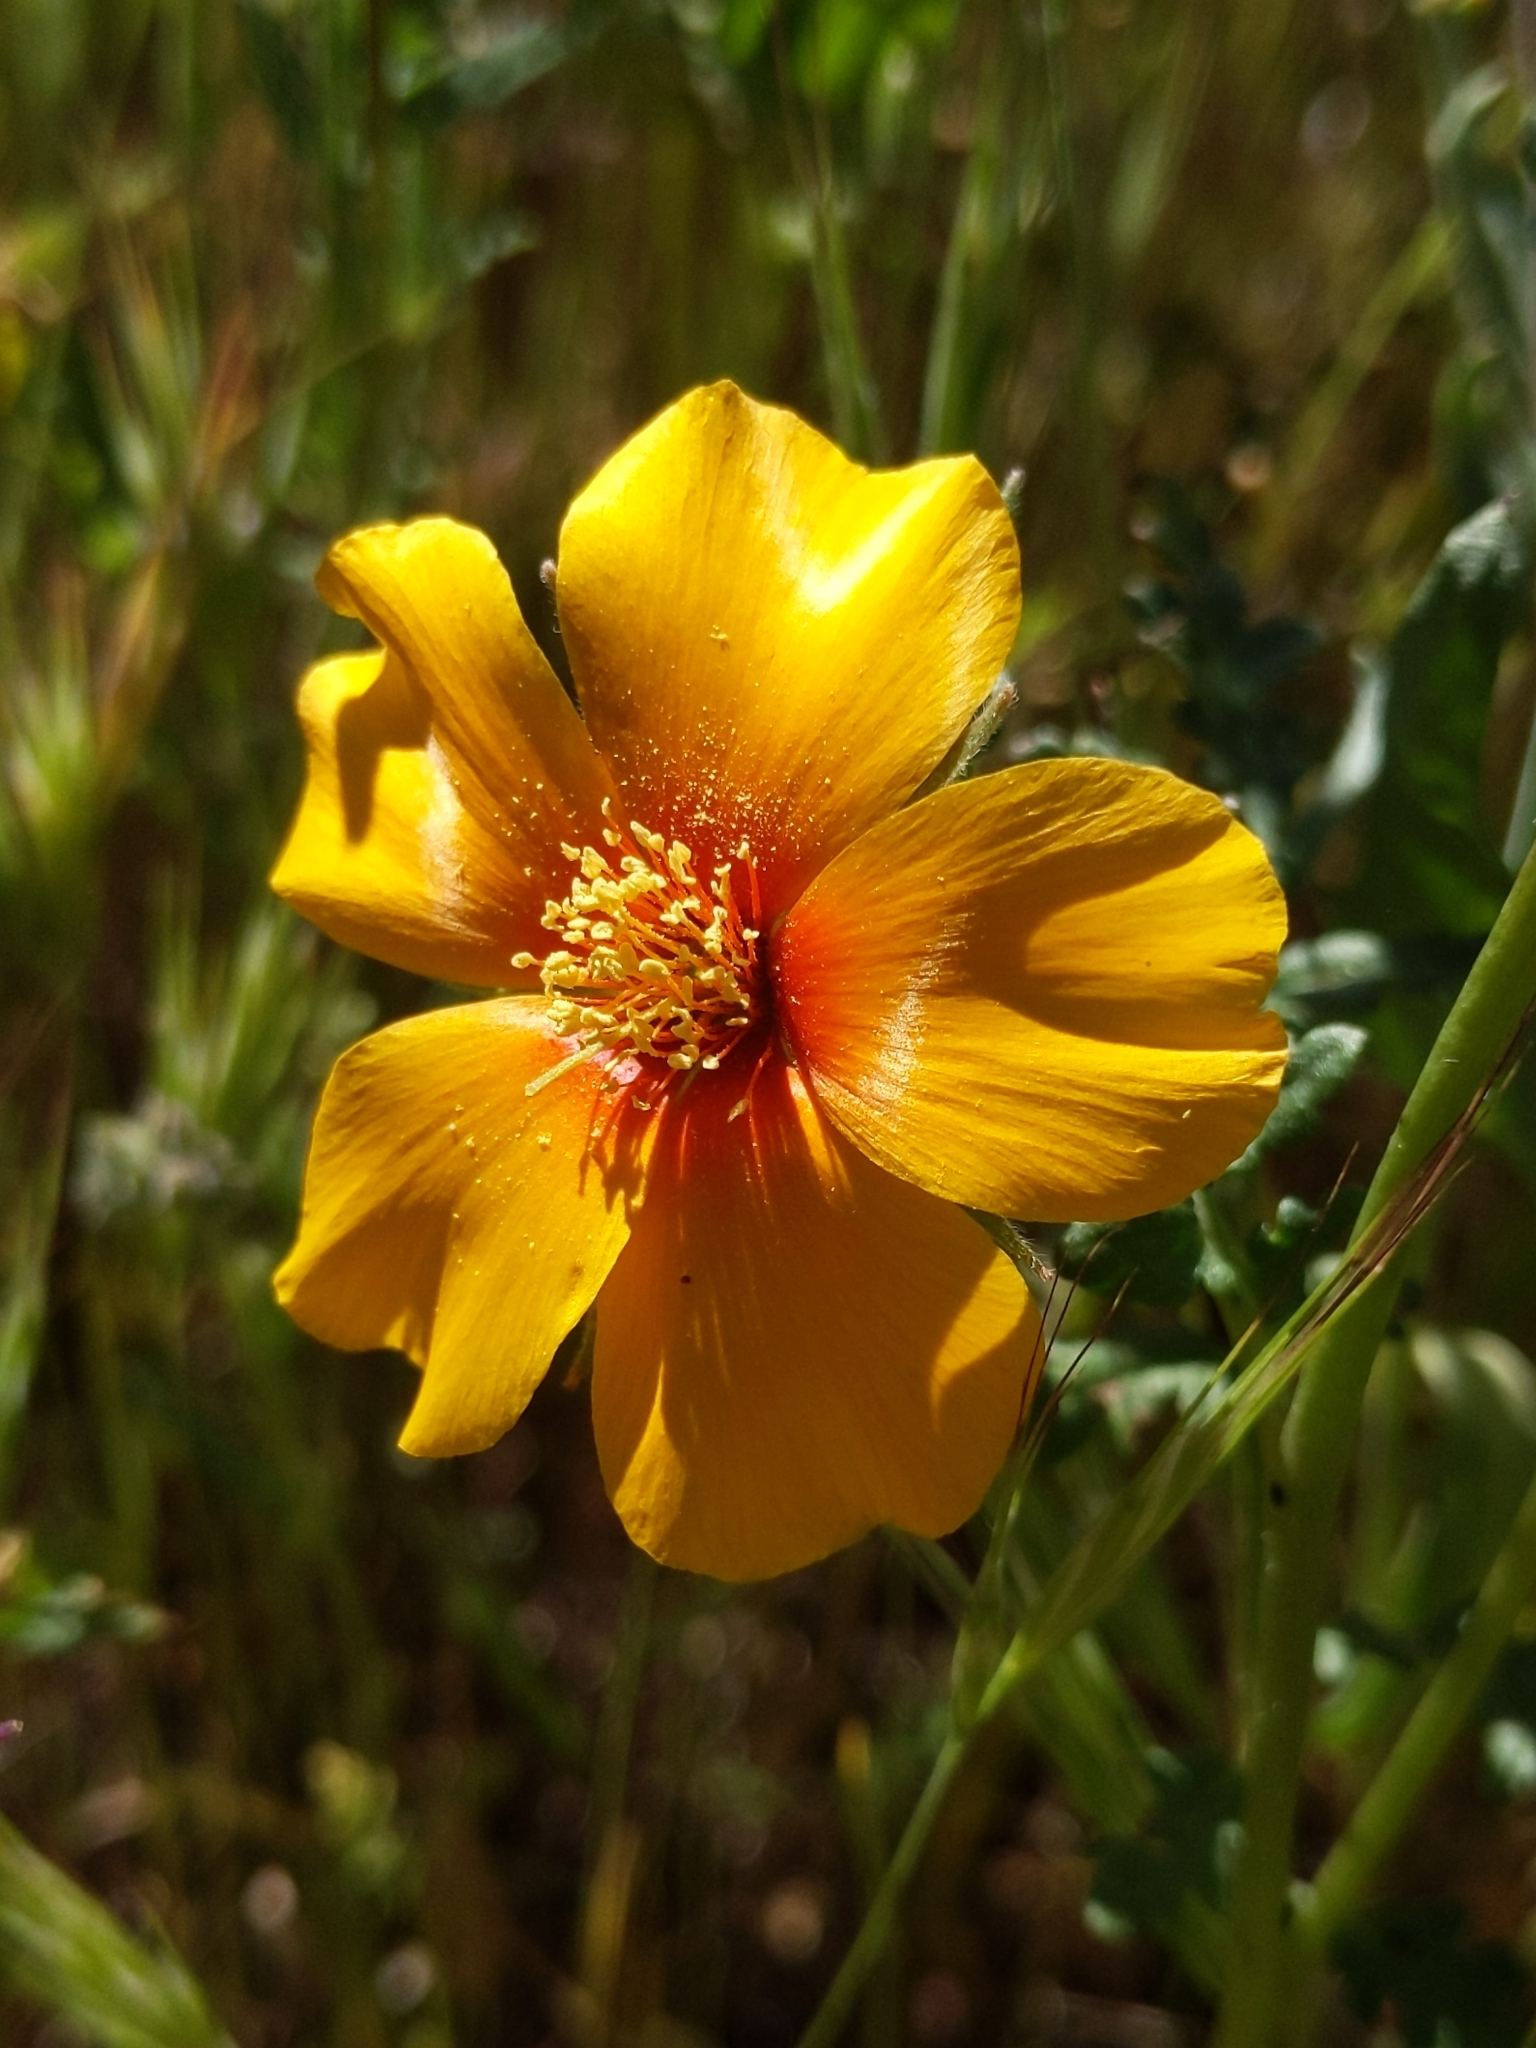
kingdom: Plantae
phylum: Tracheophyta
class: Magnoliopsida
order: Cornales
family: Loasaceae
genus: Mentzelia
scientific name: Mentzelia pectinata
